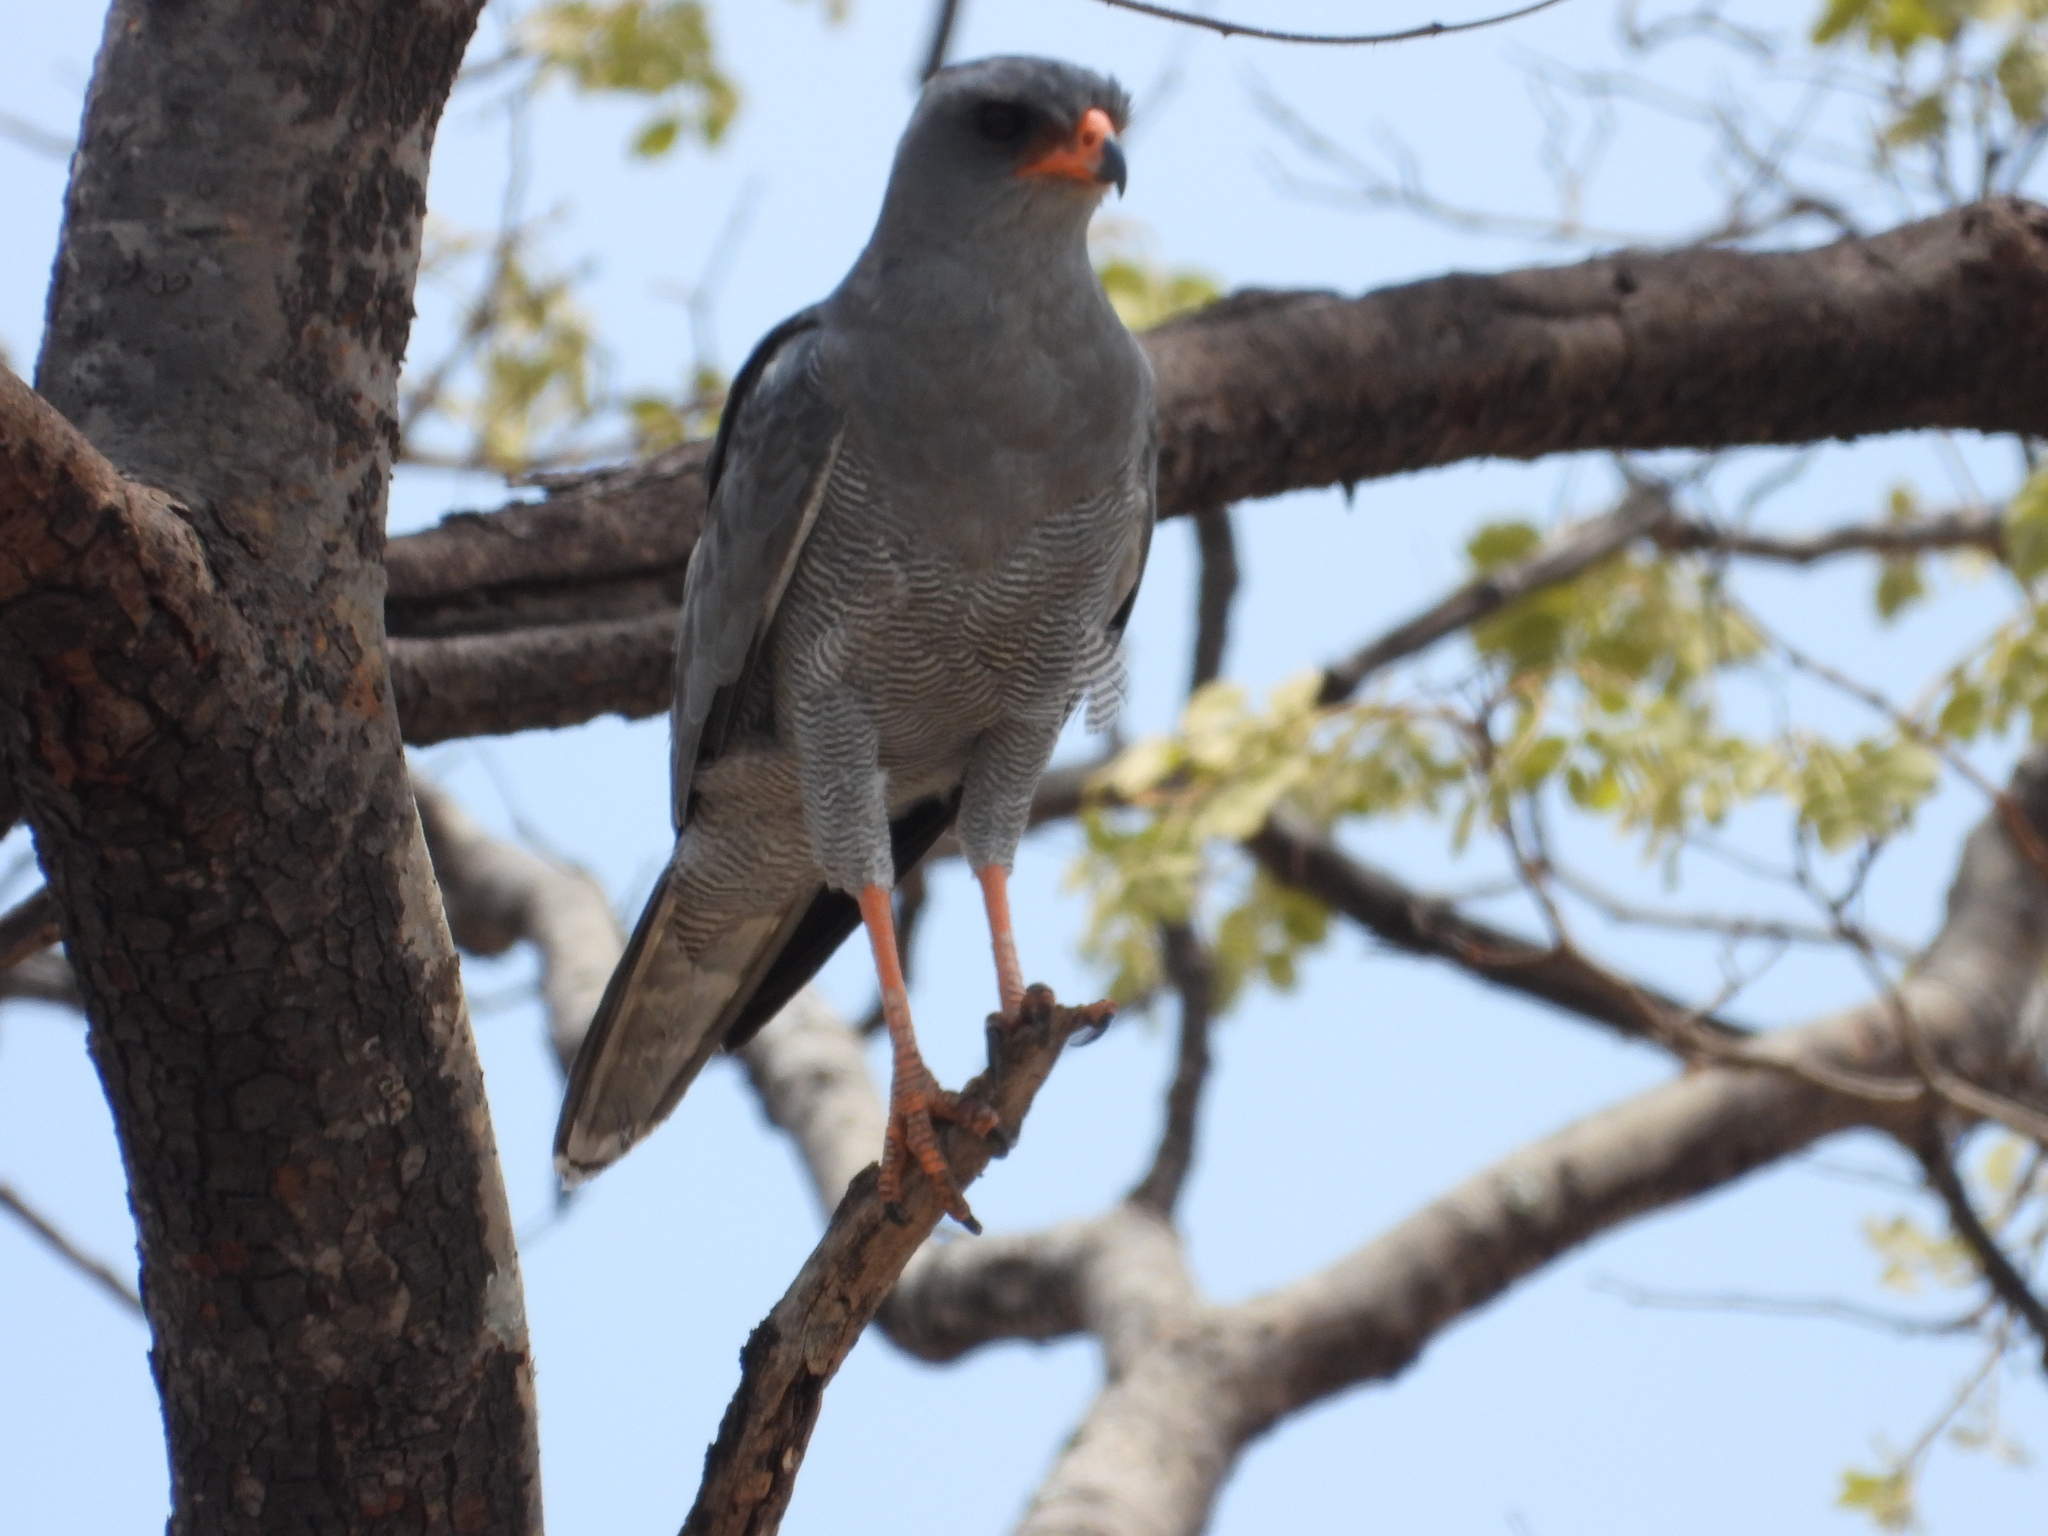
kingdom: Animalia
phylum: Chordata
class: Aves
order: Accipitriformes
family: Accipitridae
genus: Melierax
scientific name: Melierax metabates
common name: Dark chanting-goshawk
